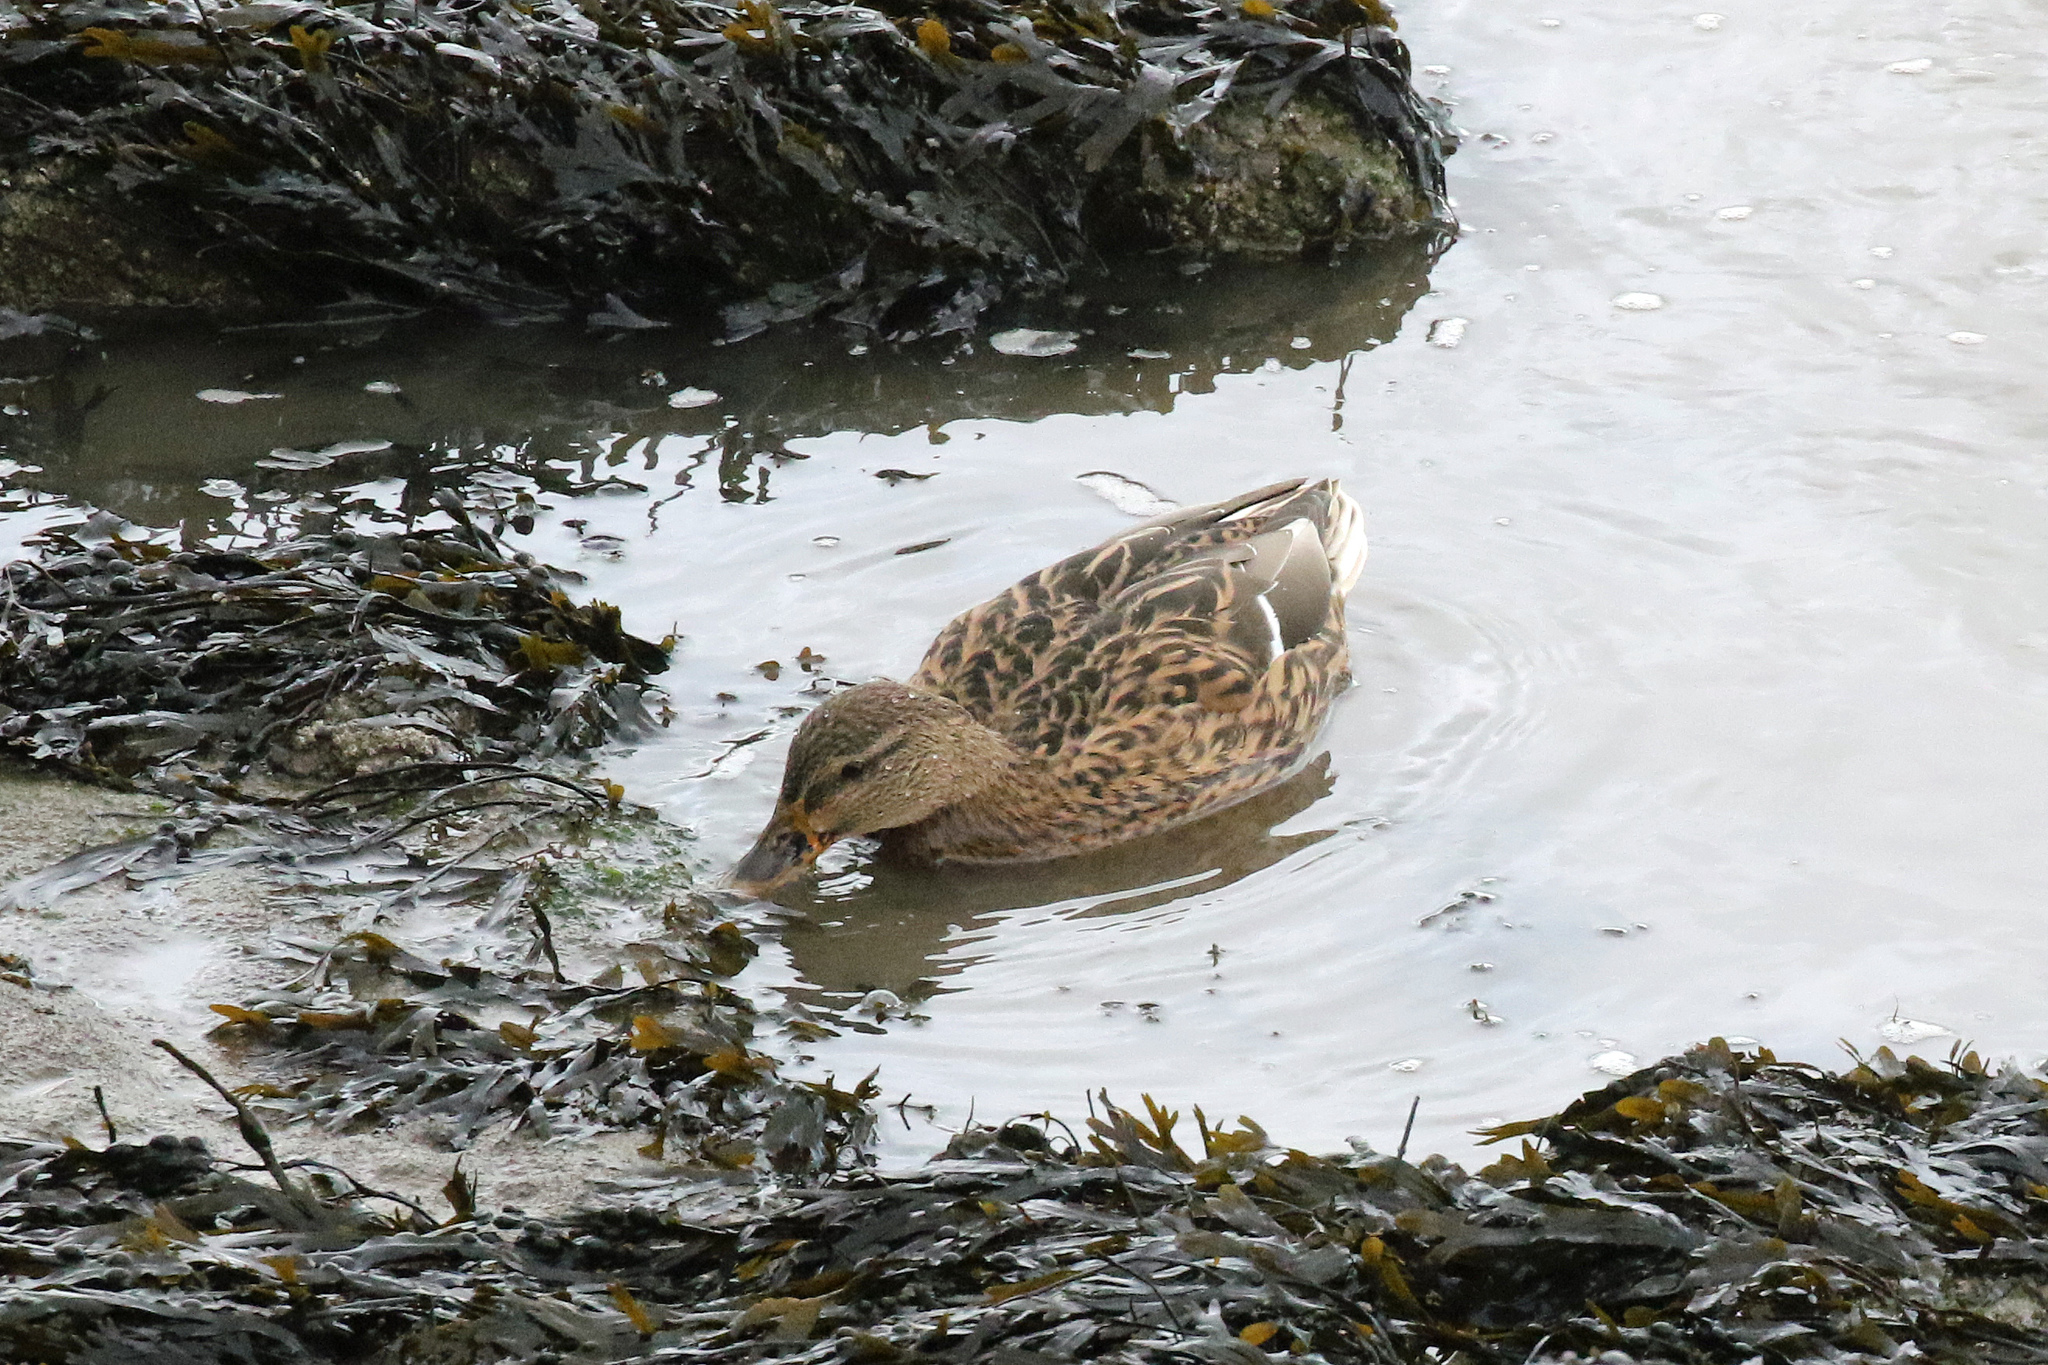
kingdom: Animalia
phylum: Chordata
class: Aves
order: Anseriformes
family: Anatidae
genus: Anas
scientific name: Anas platyrhynchos
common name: Mallard
